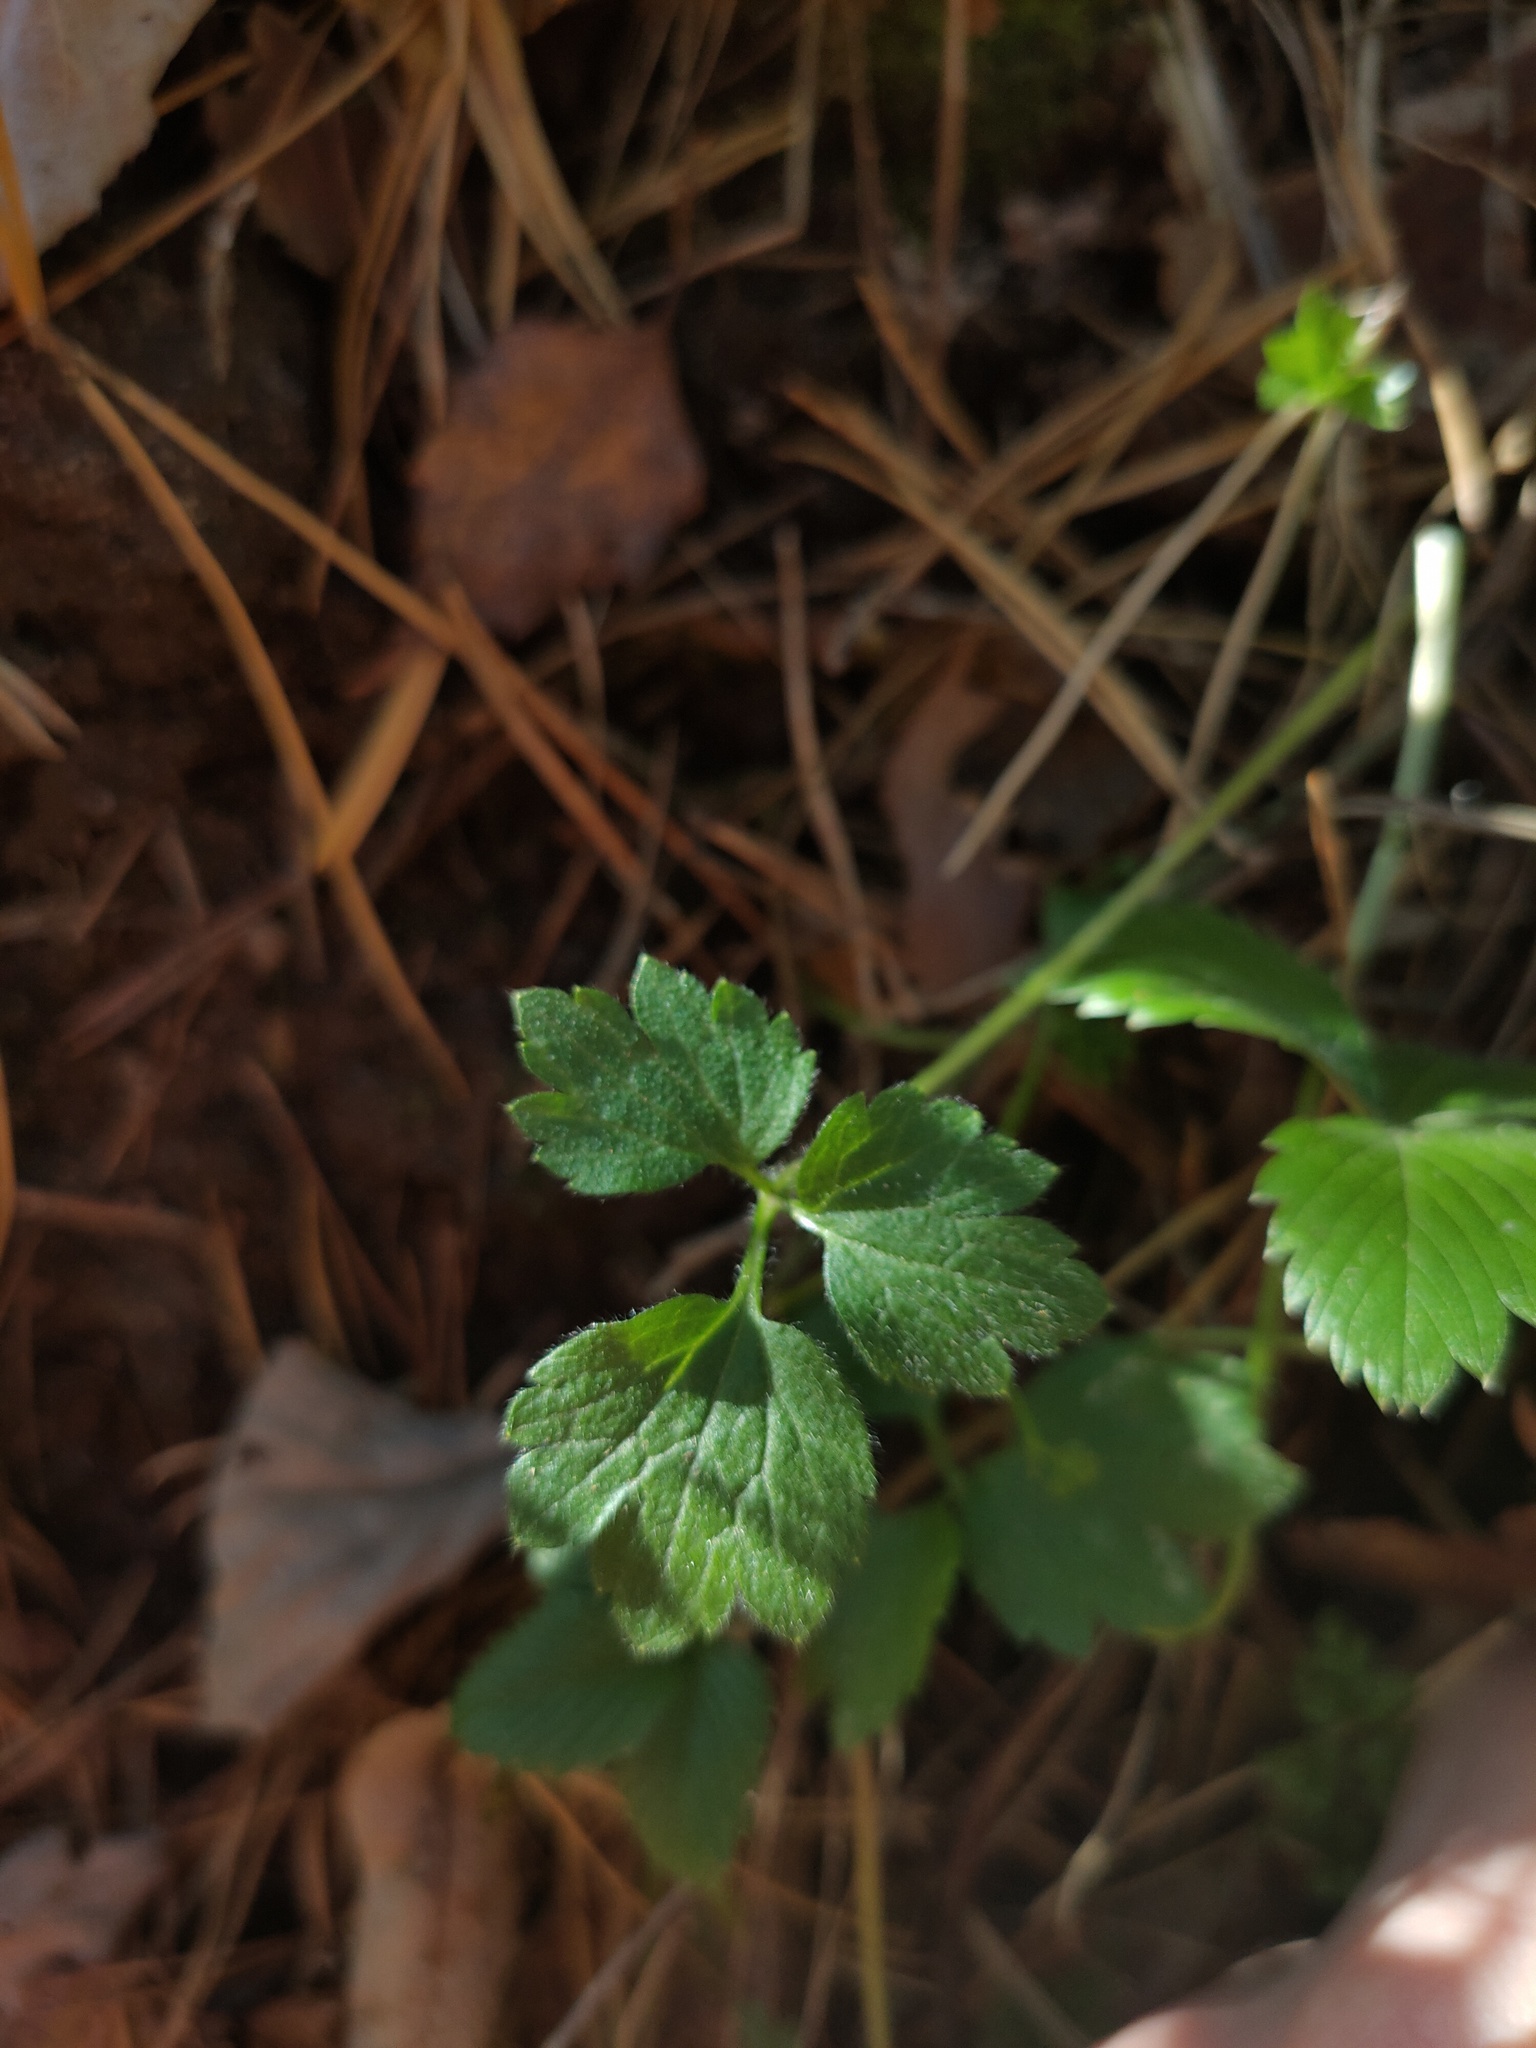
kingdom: Plantae
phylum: Tracheophyta
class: Magnoliopsida
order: Ranunculales
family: Ranunculaceae
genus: Ranunculus
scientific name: Ranunculus repens
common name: Creeping buttercup
